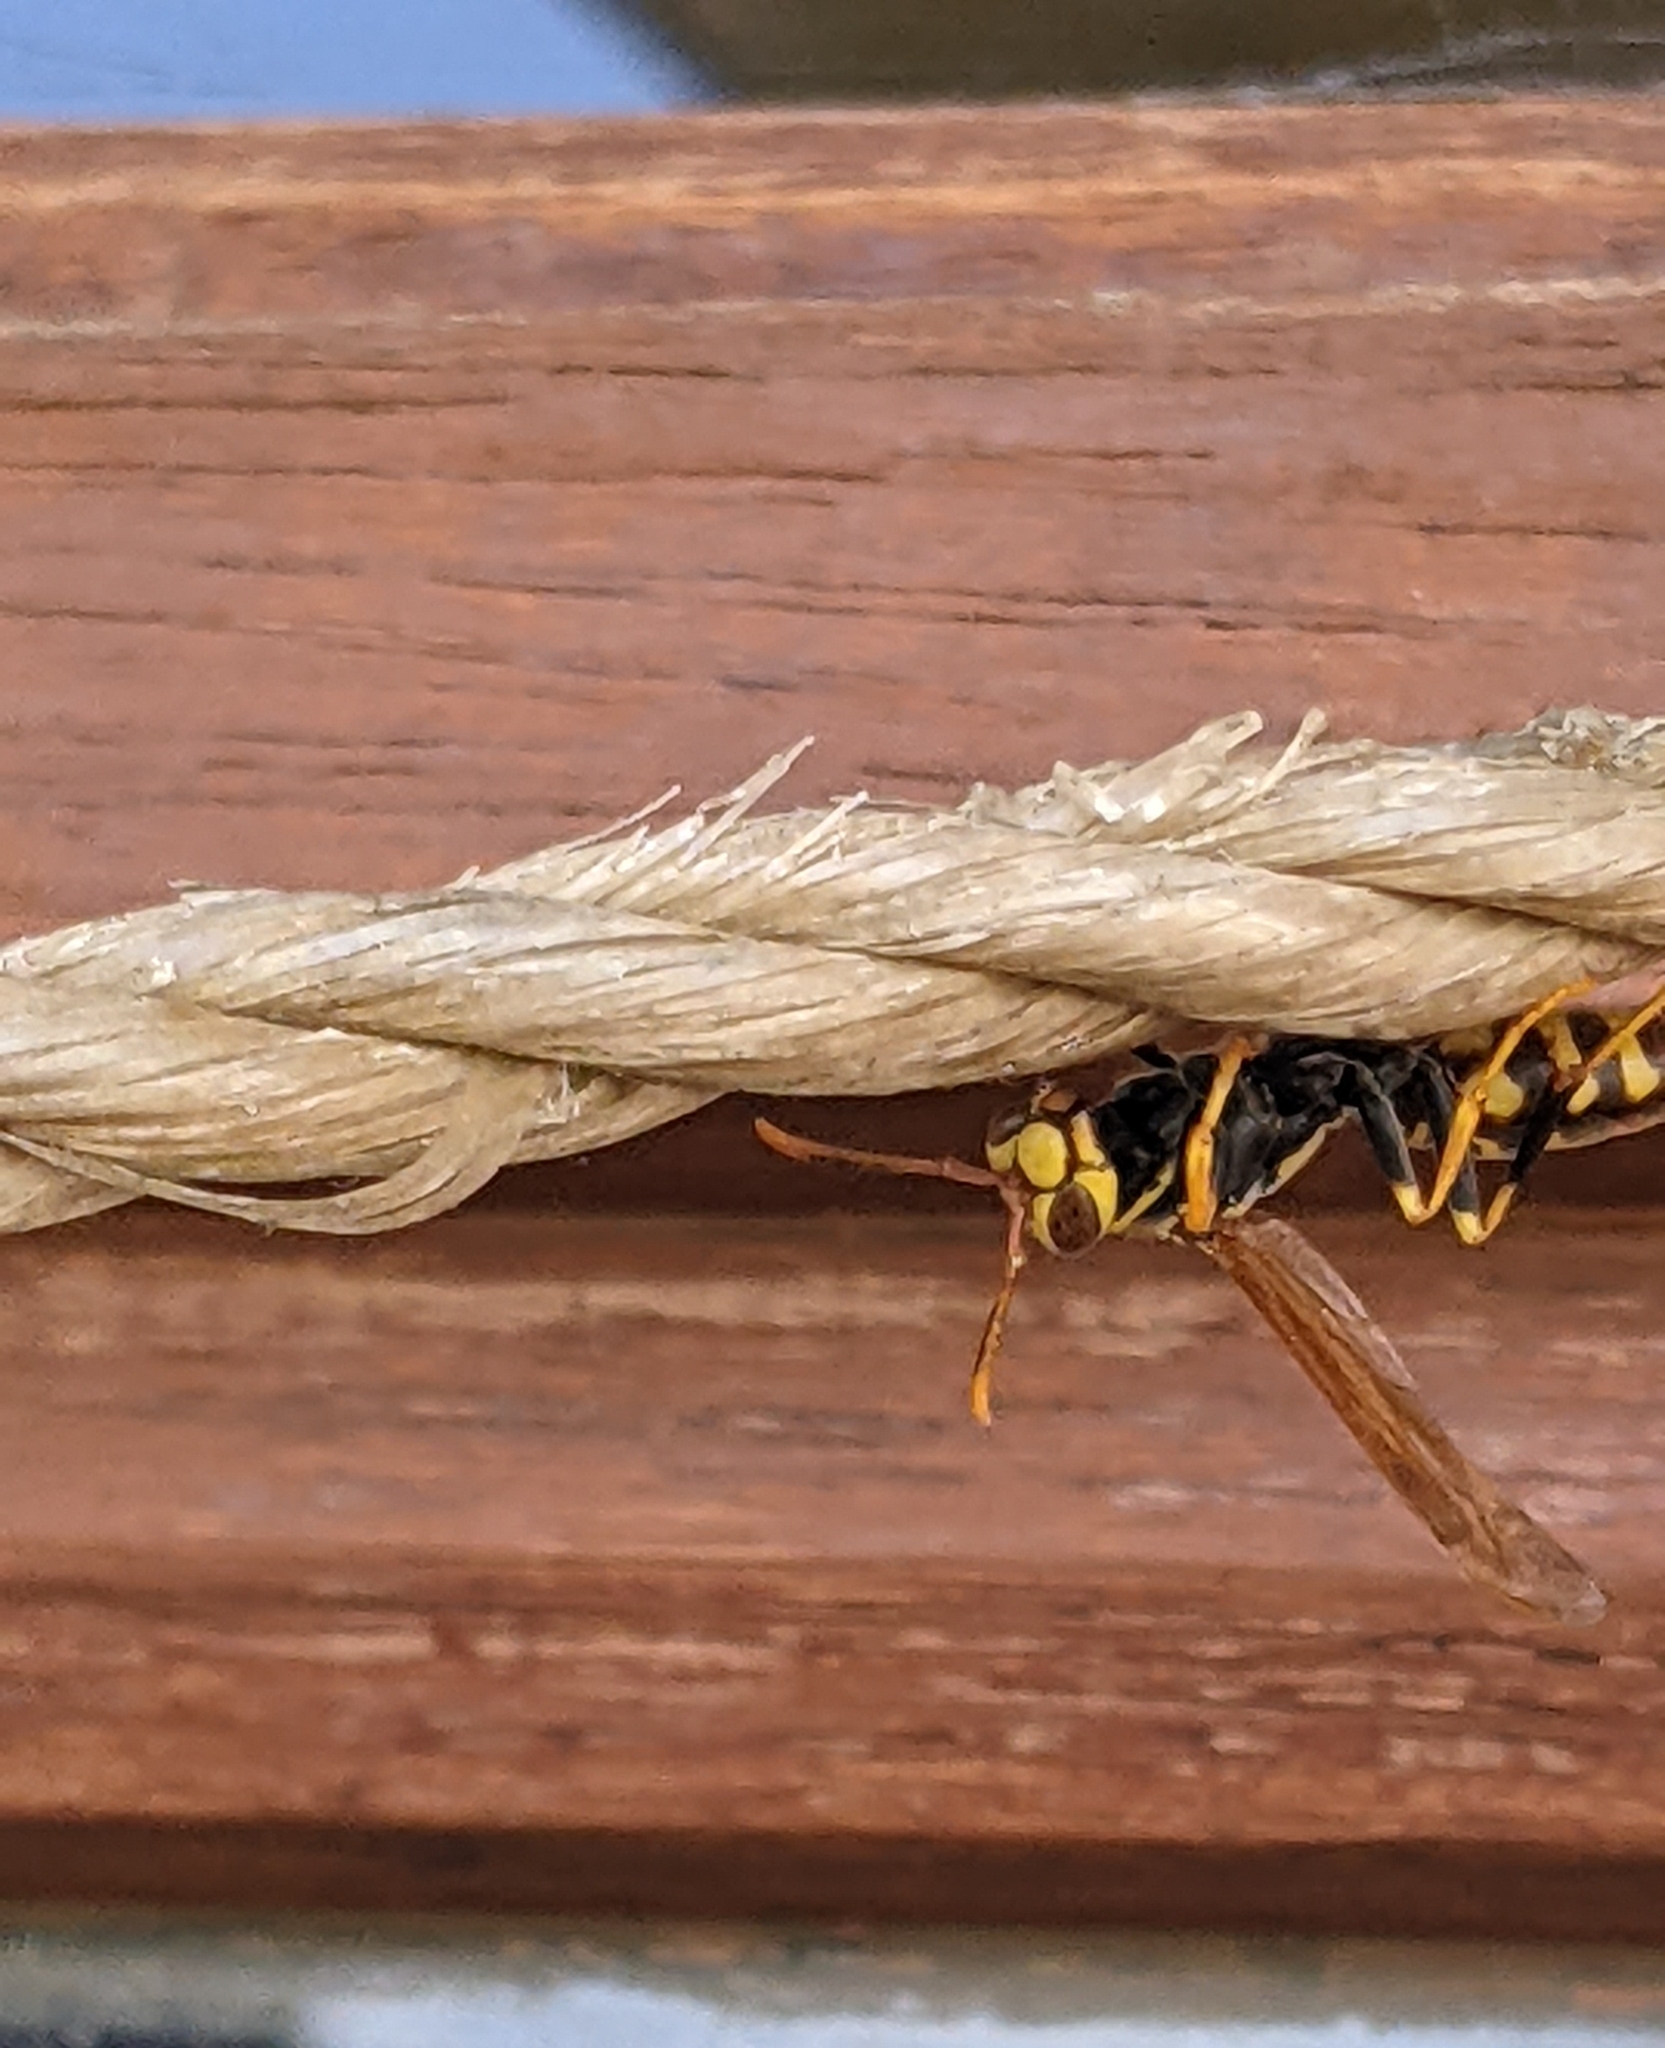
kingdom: Animalia
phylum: Arthropoda
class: Insecta
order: Hymenoptera
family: Eumenidae
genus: Polistes
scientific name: Polistes myersi
